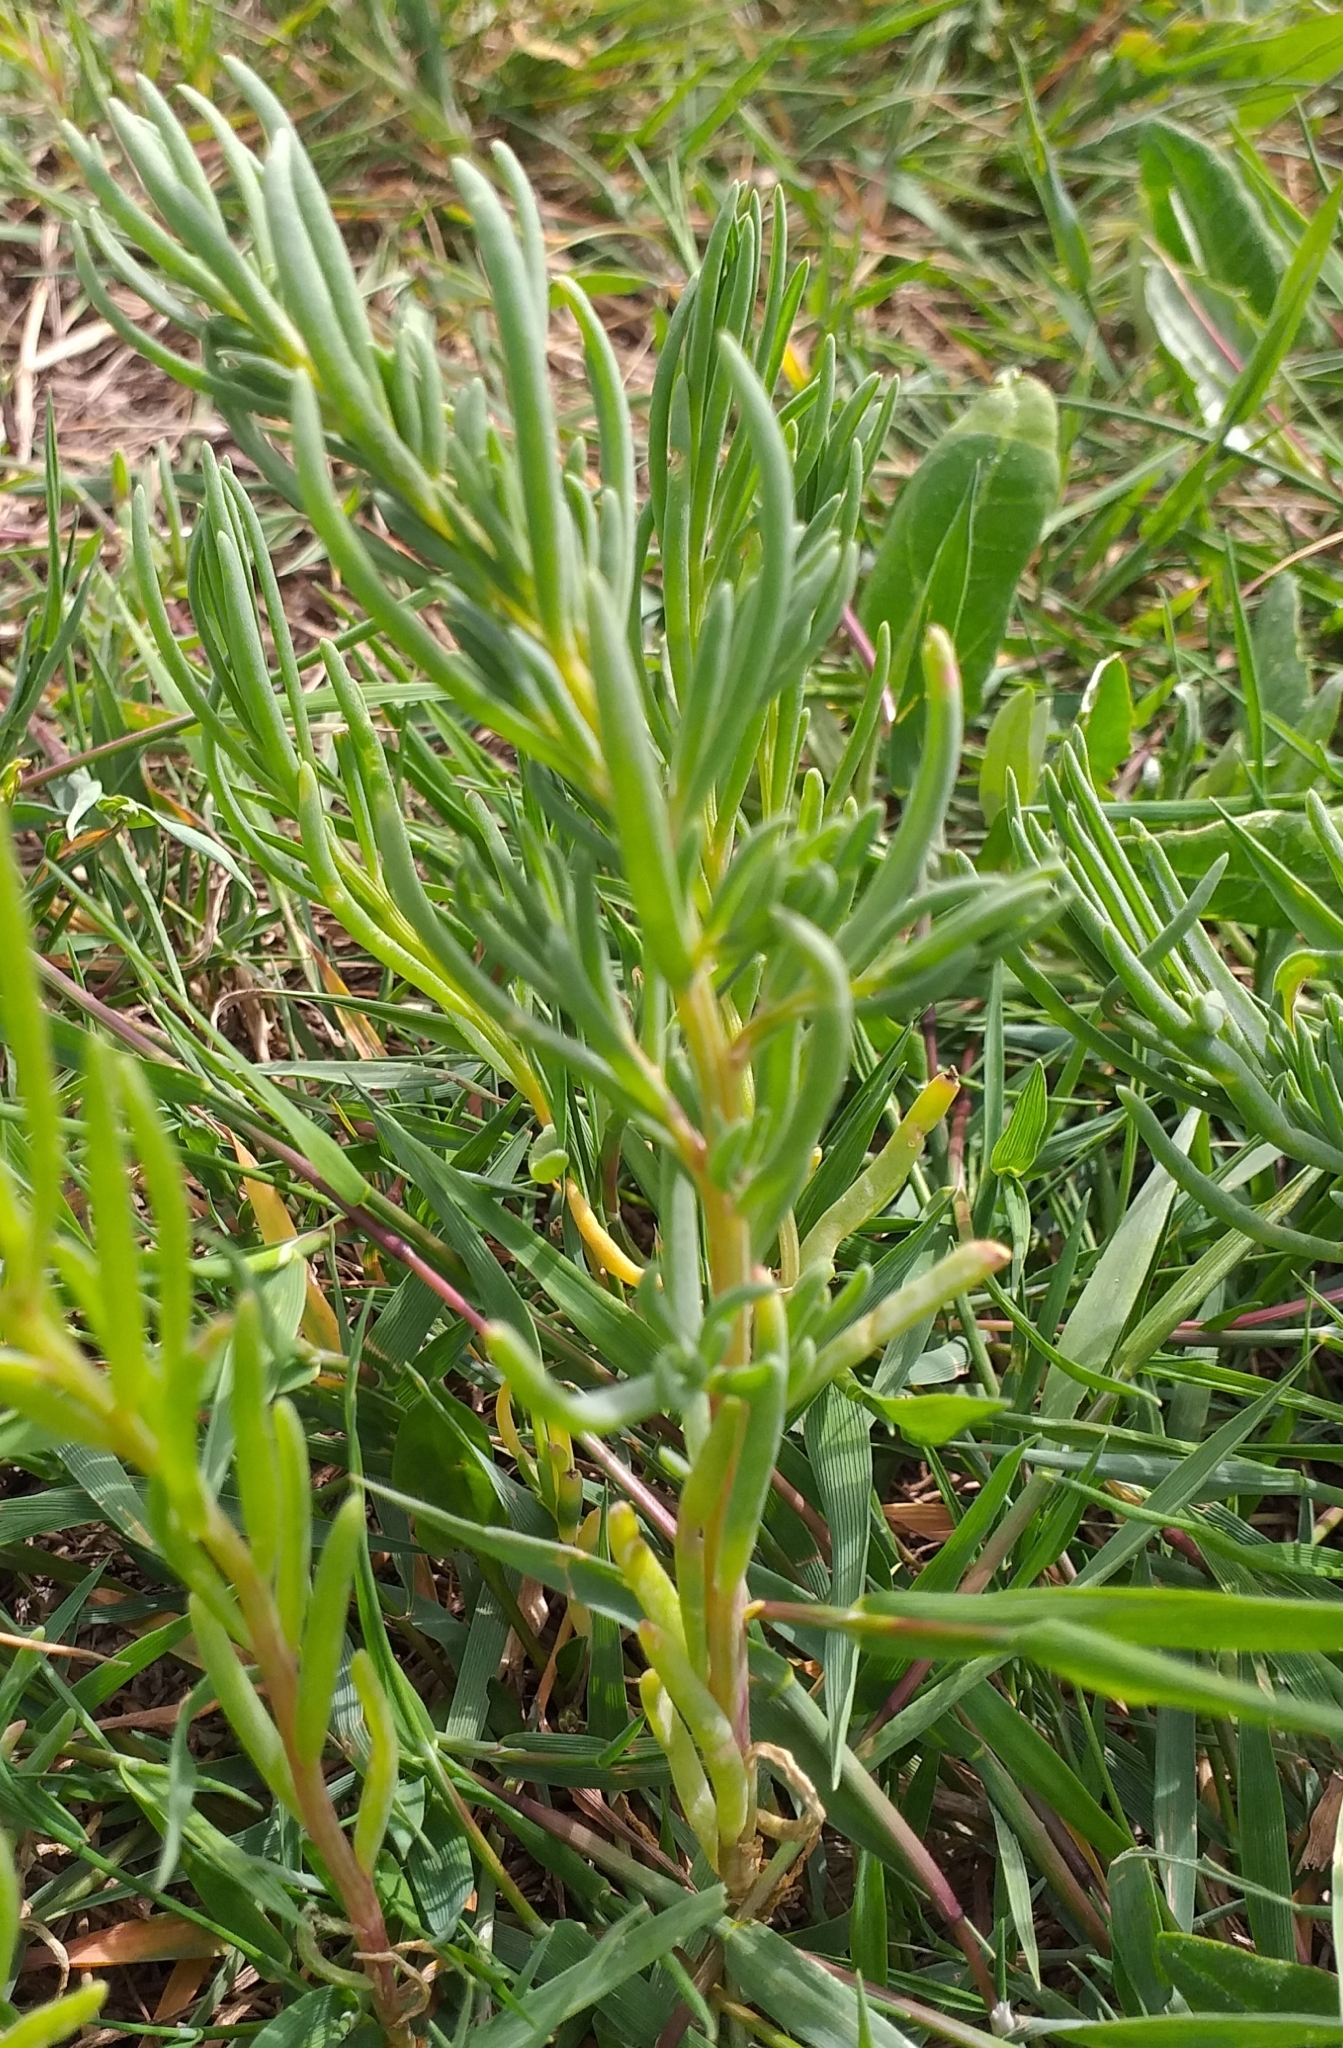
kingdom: Plantae
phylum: Tracheophyta
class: Magnoliopsida
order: Caryophyllales
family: Amaranthaceae
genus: Suaeda
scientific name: Suaeda maritima
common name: Annual sea-blite
